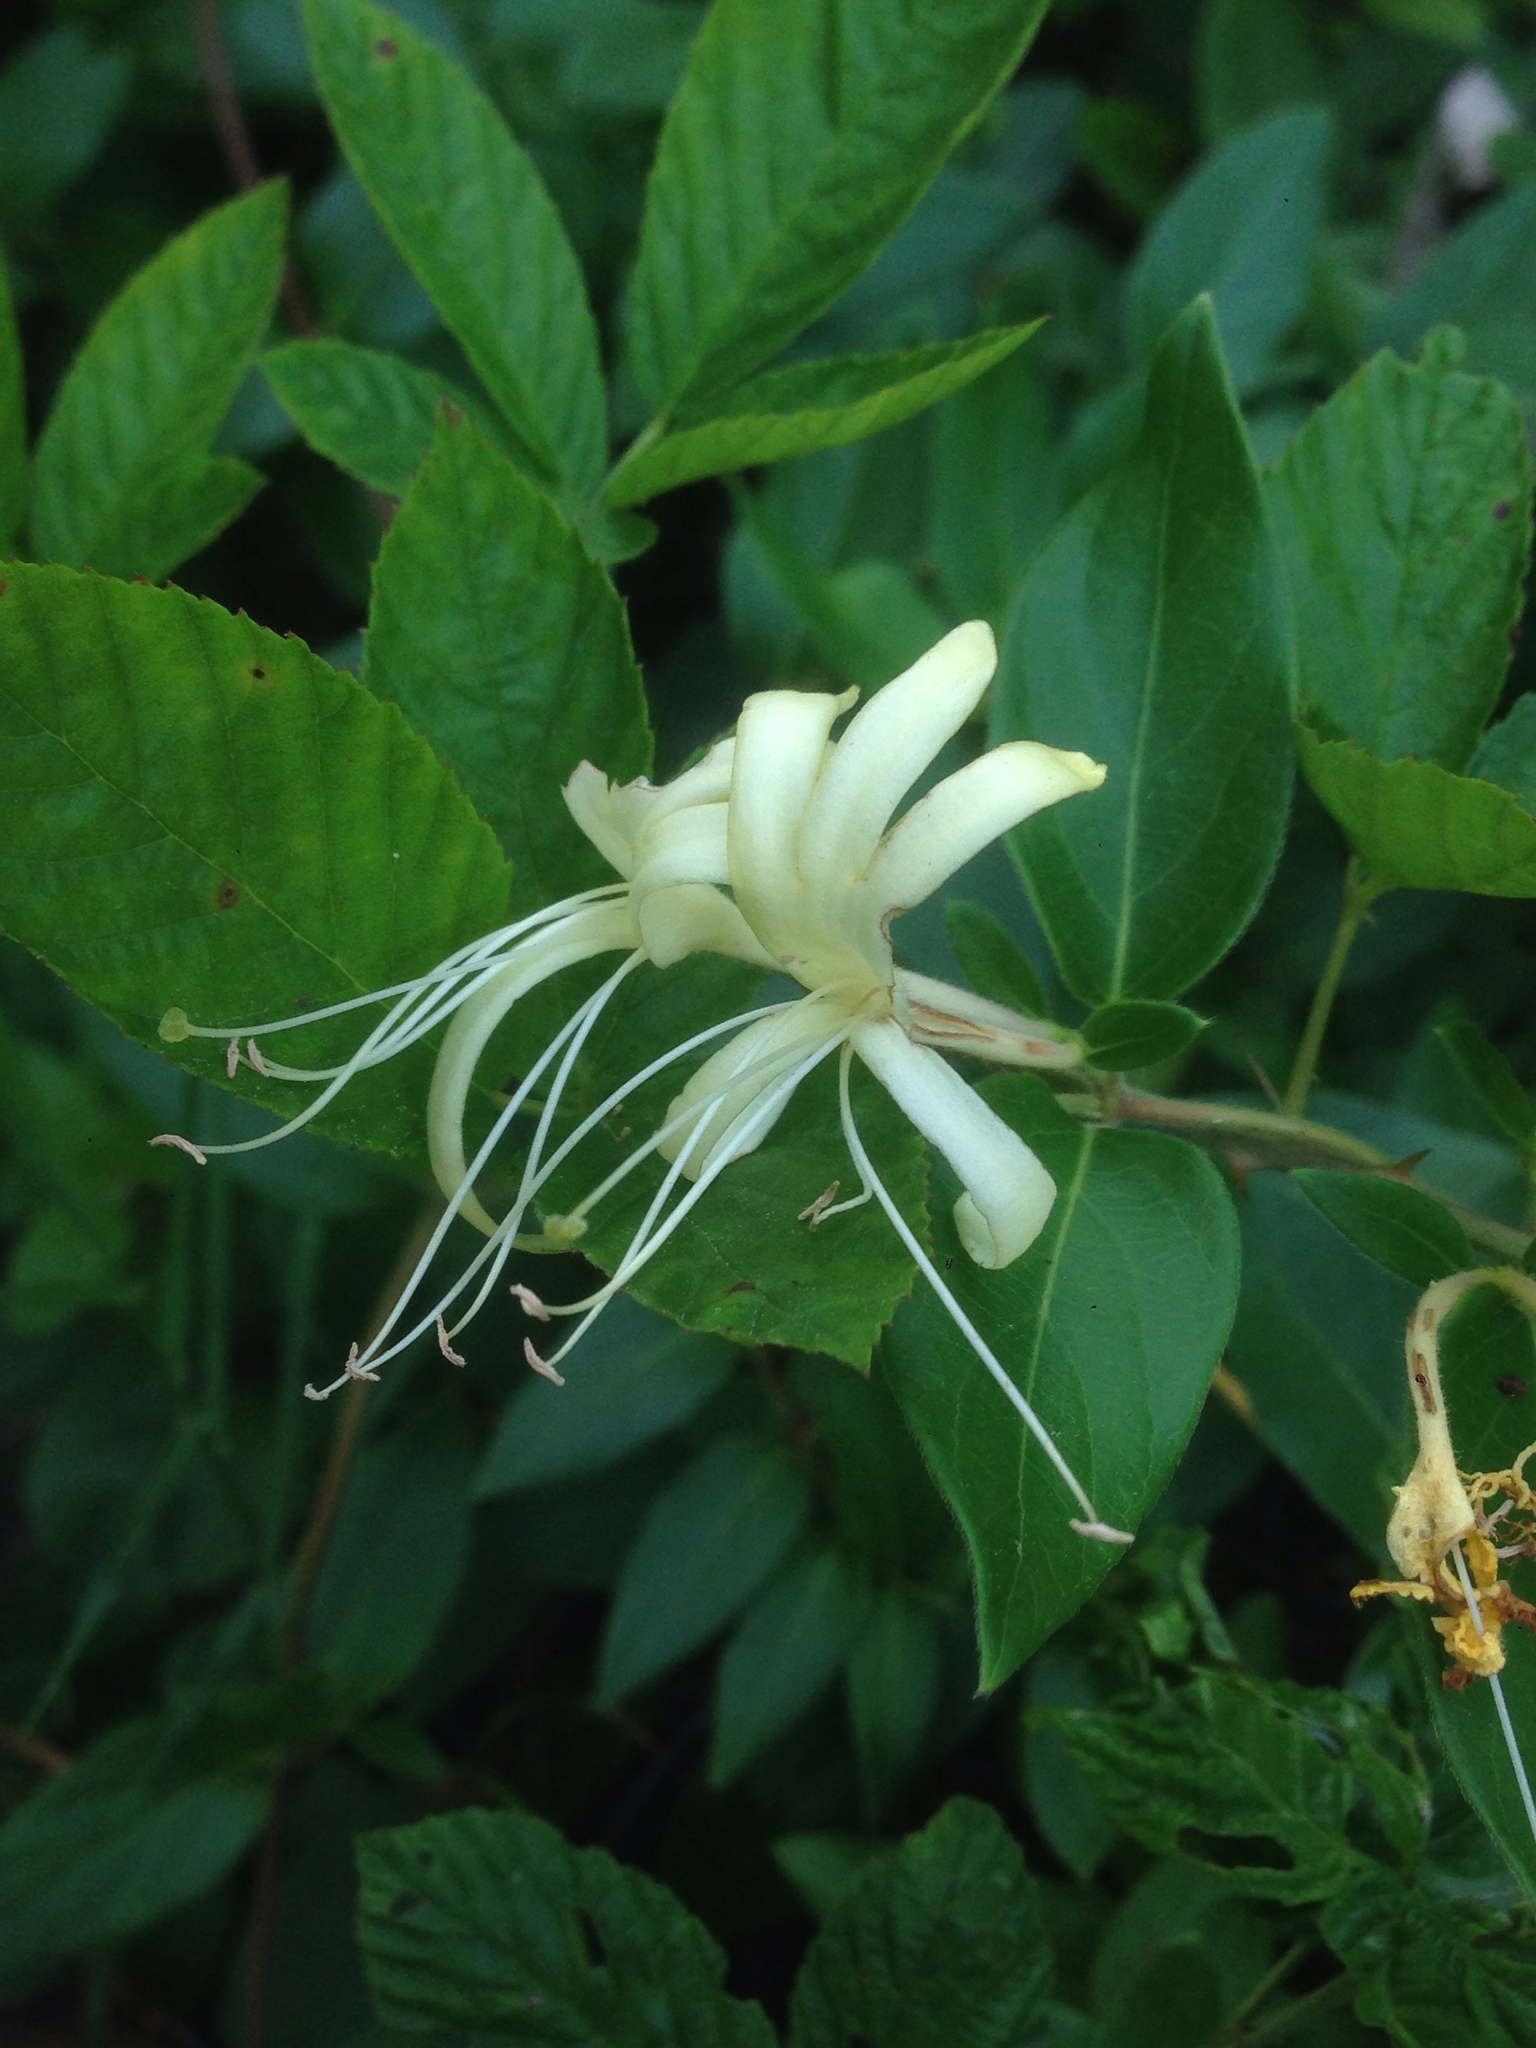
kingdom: Plantae
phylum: Tracheophyta
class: Magnoliopsida
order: Dipsacales
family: Caprifoliaceae
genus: Lonicera
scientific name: Lonicera japonica
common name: Japanese honeysuckle
